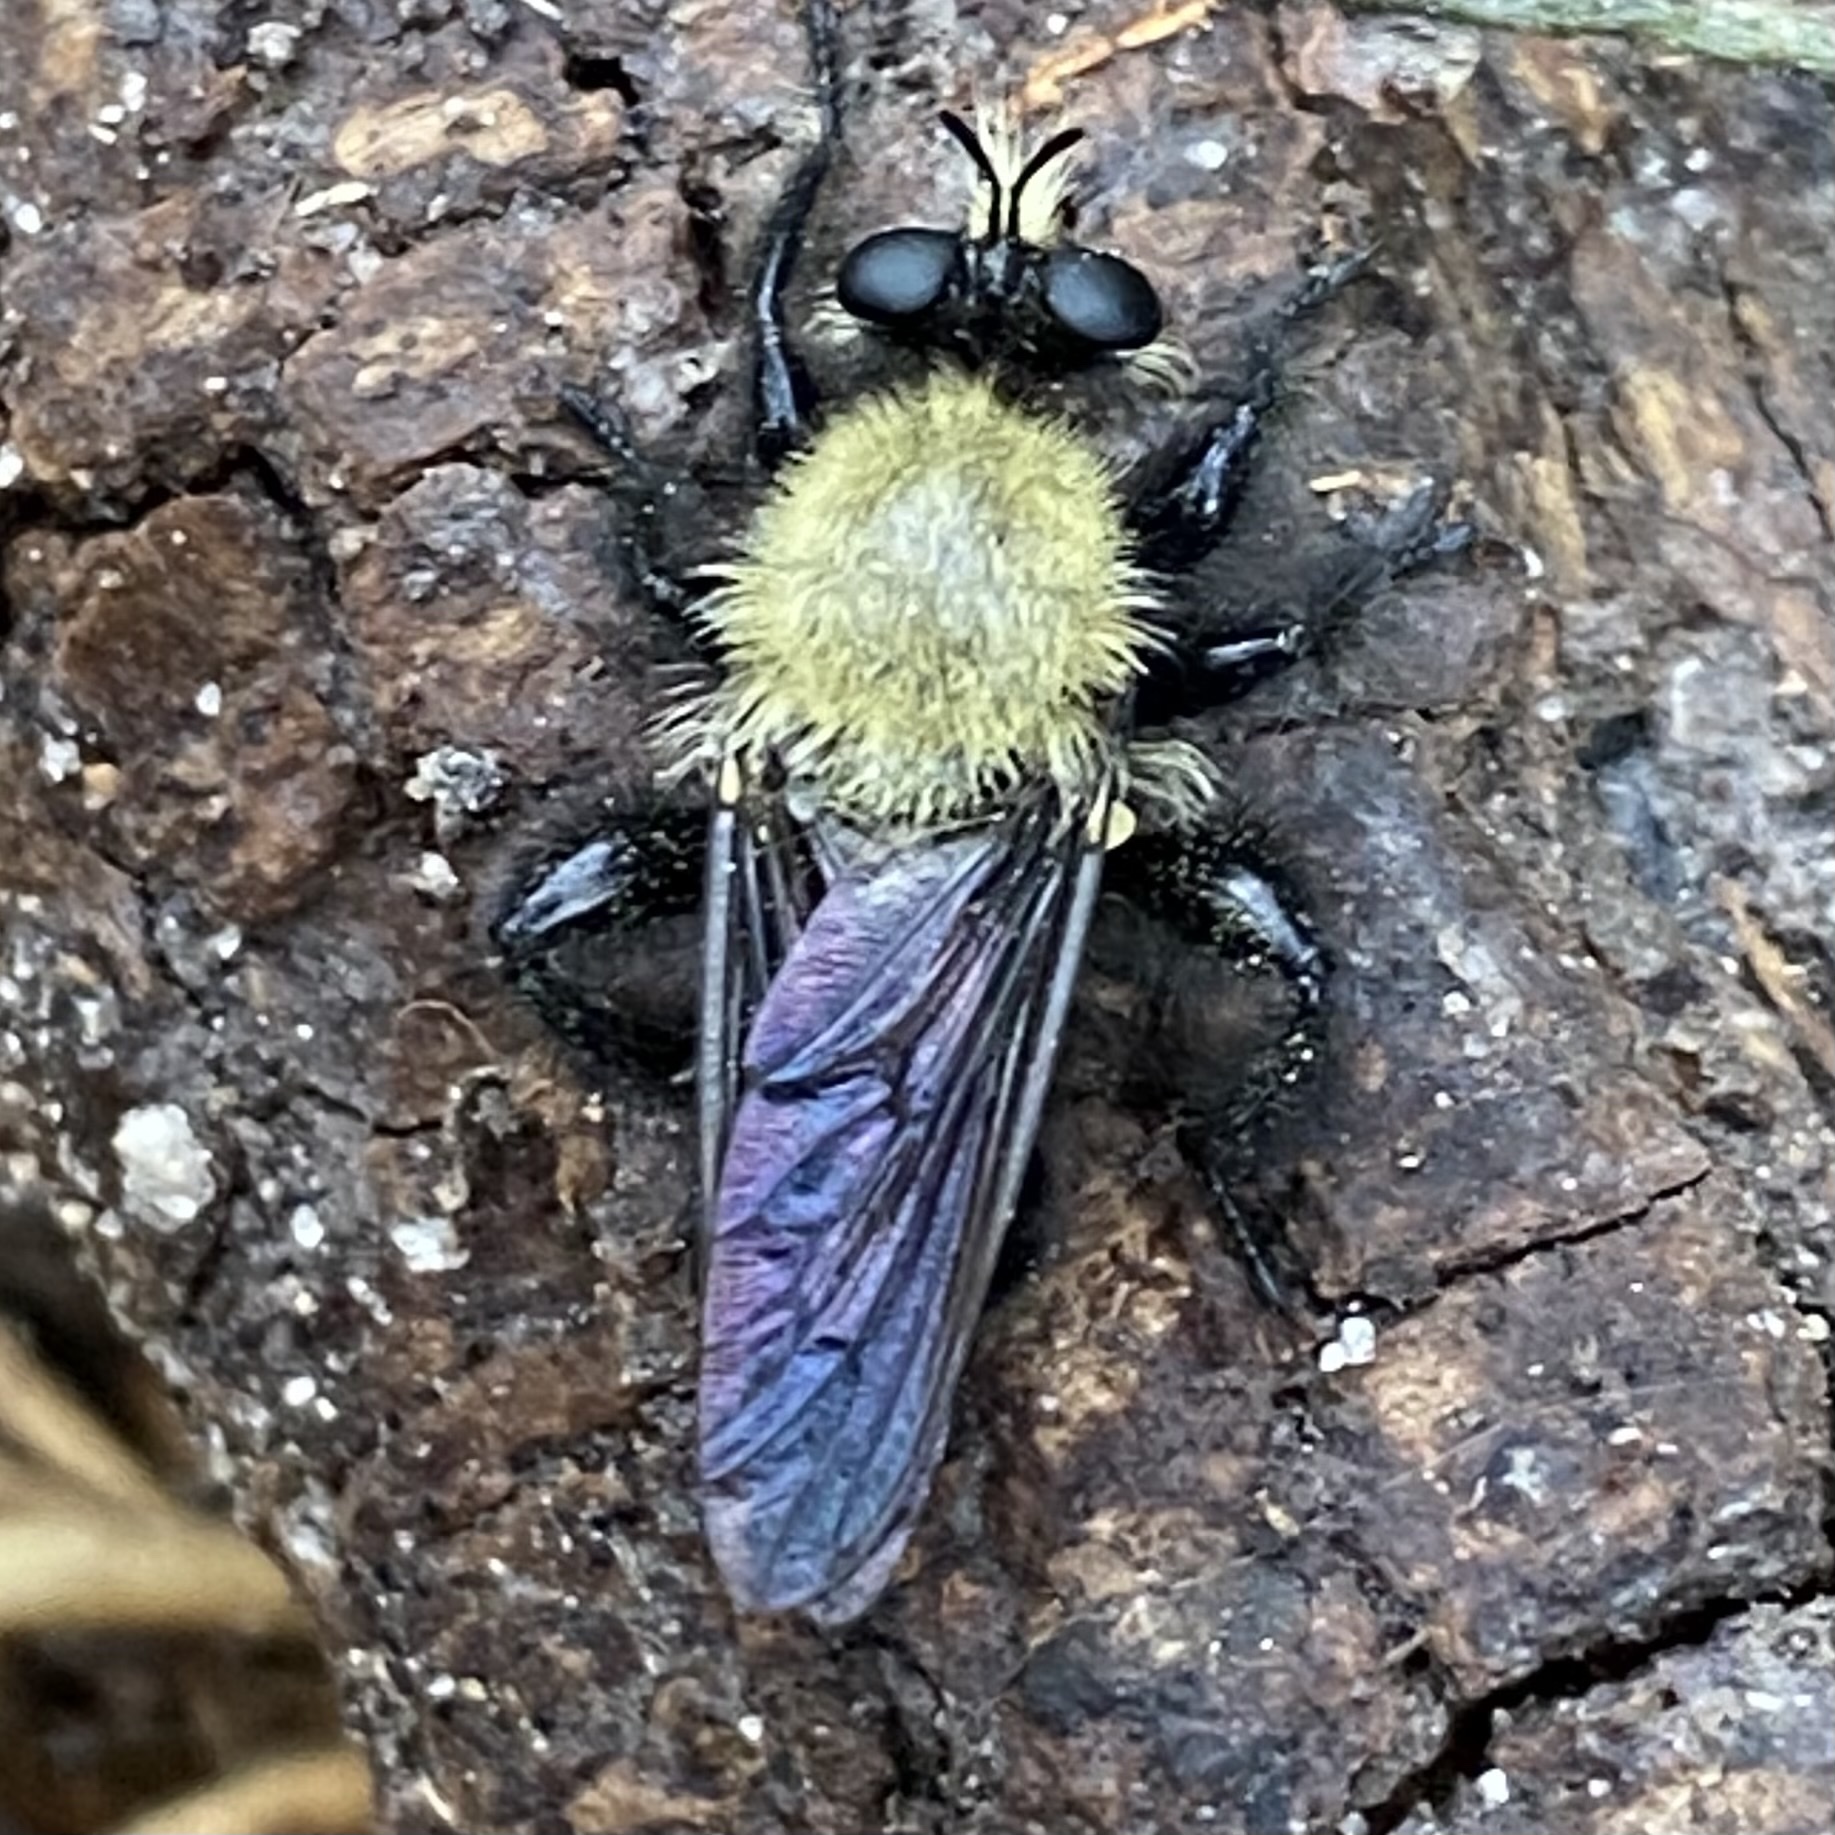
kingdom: Animalia
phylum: Arthropoda
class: Insecta
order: Diptera
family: Asilidae
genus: Laphria
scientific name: Laphria flavicollis
